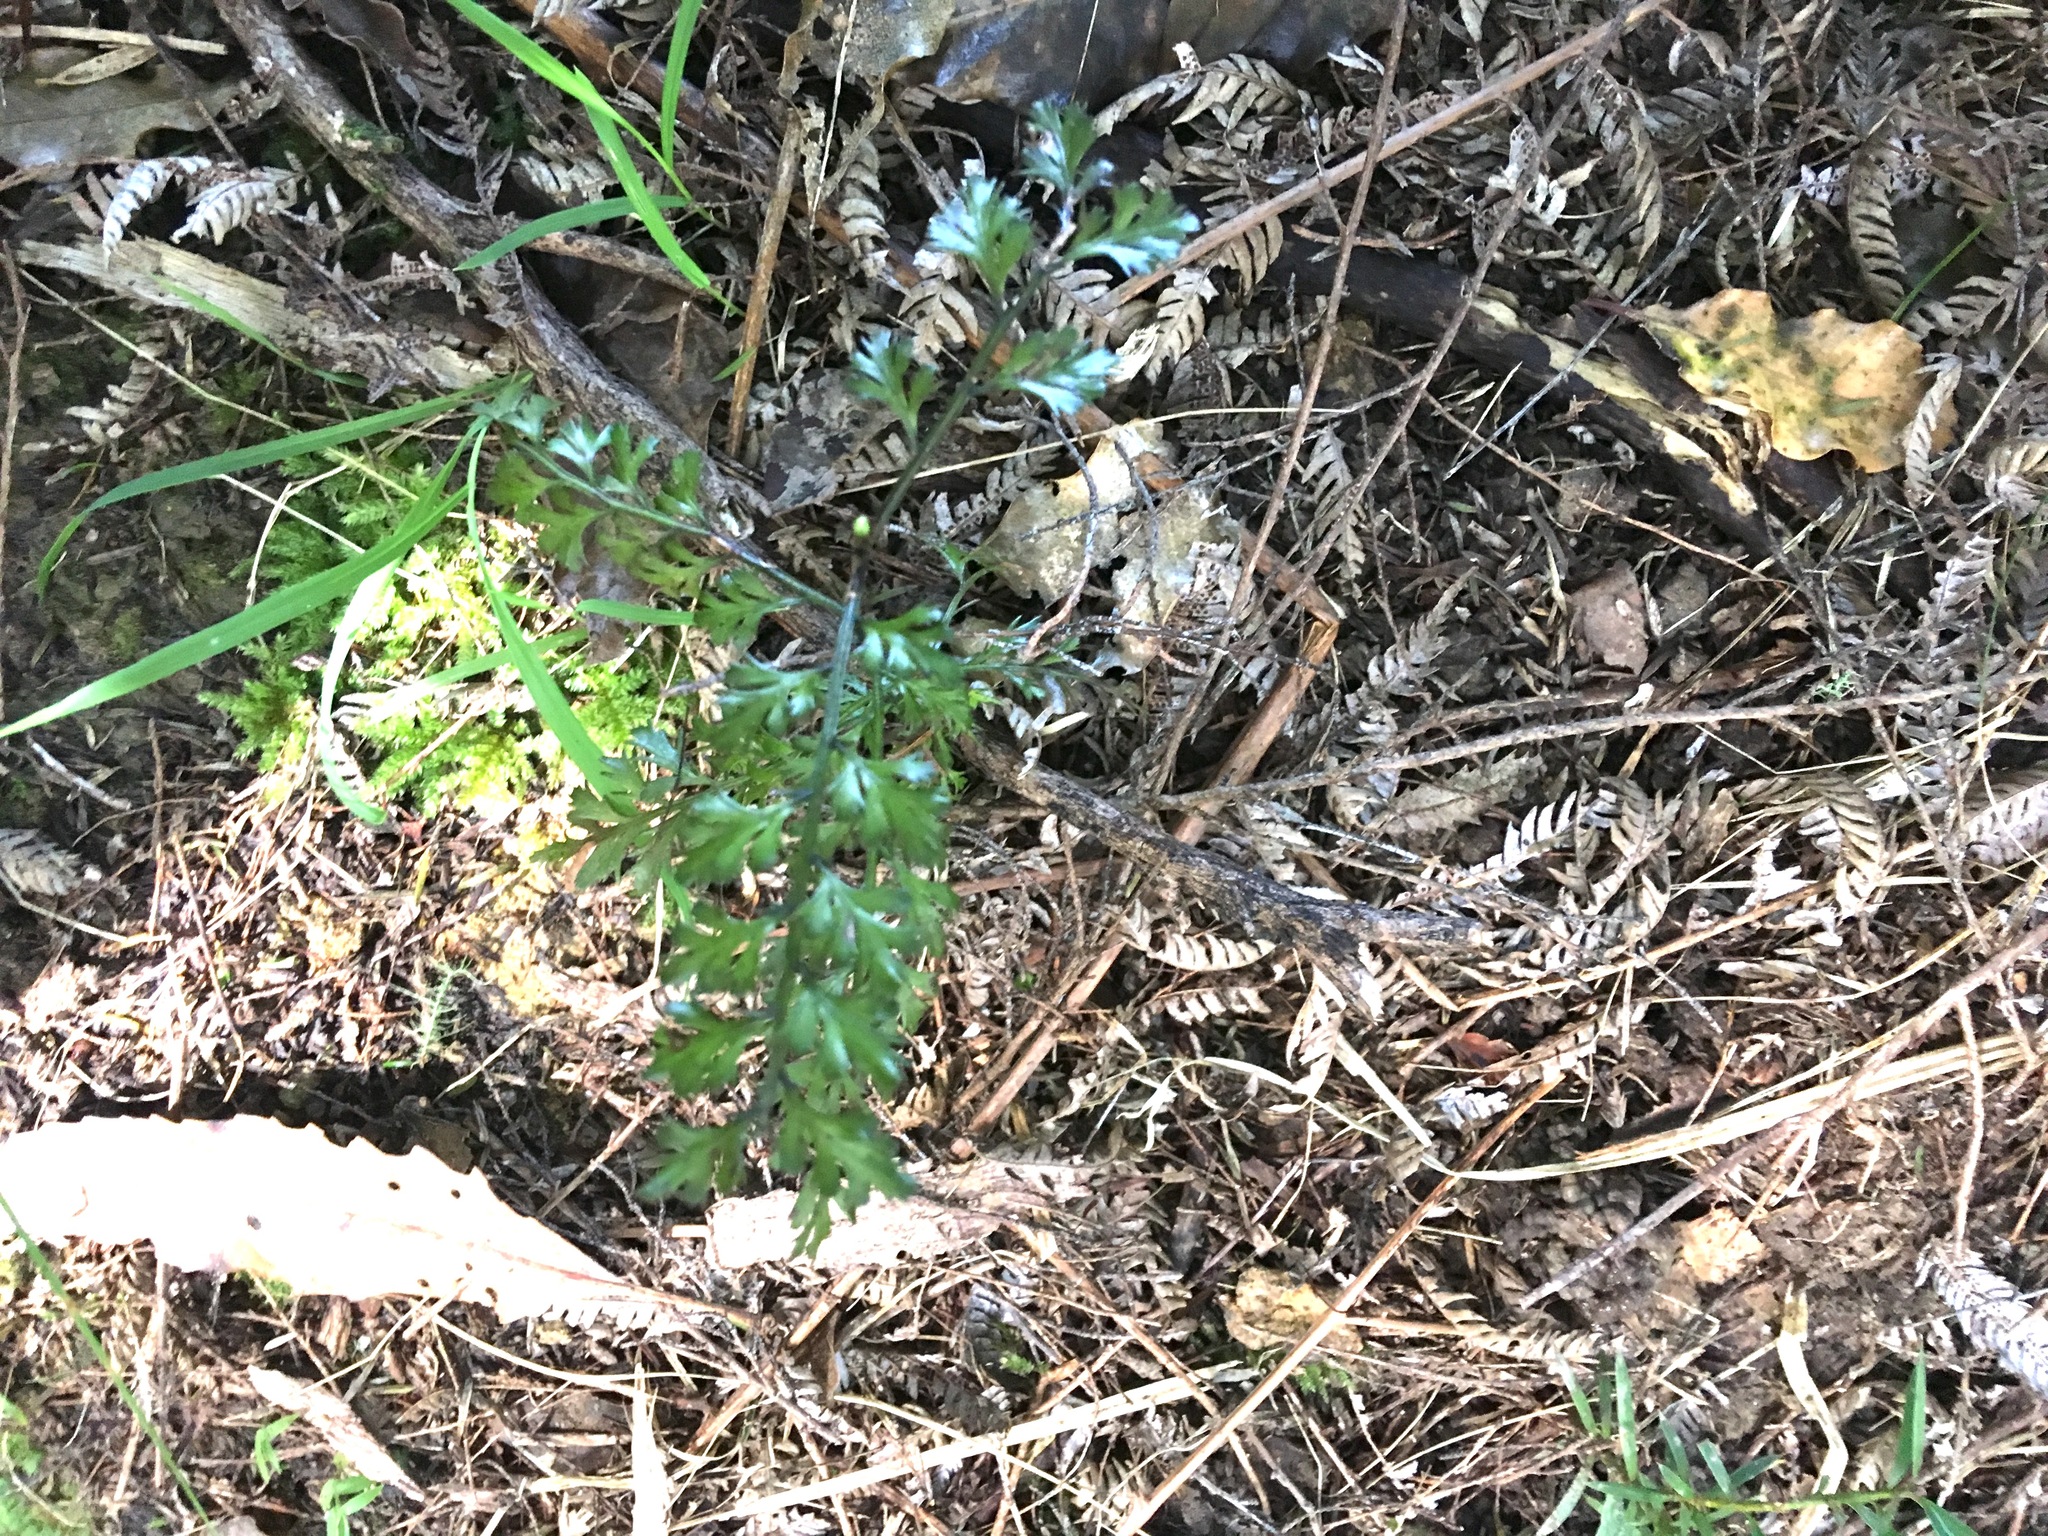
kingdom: Plantae
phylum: Tracheophyta
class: Pinopsida
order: Pinales
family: Phyllocladaceae
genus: Phyllocladus
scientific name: Phyllocladus trichomanoides
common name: Celery pine
